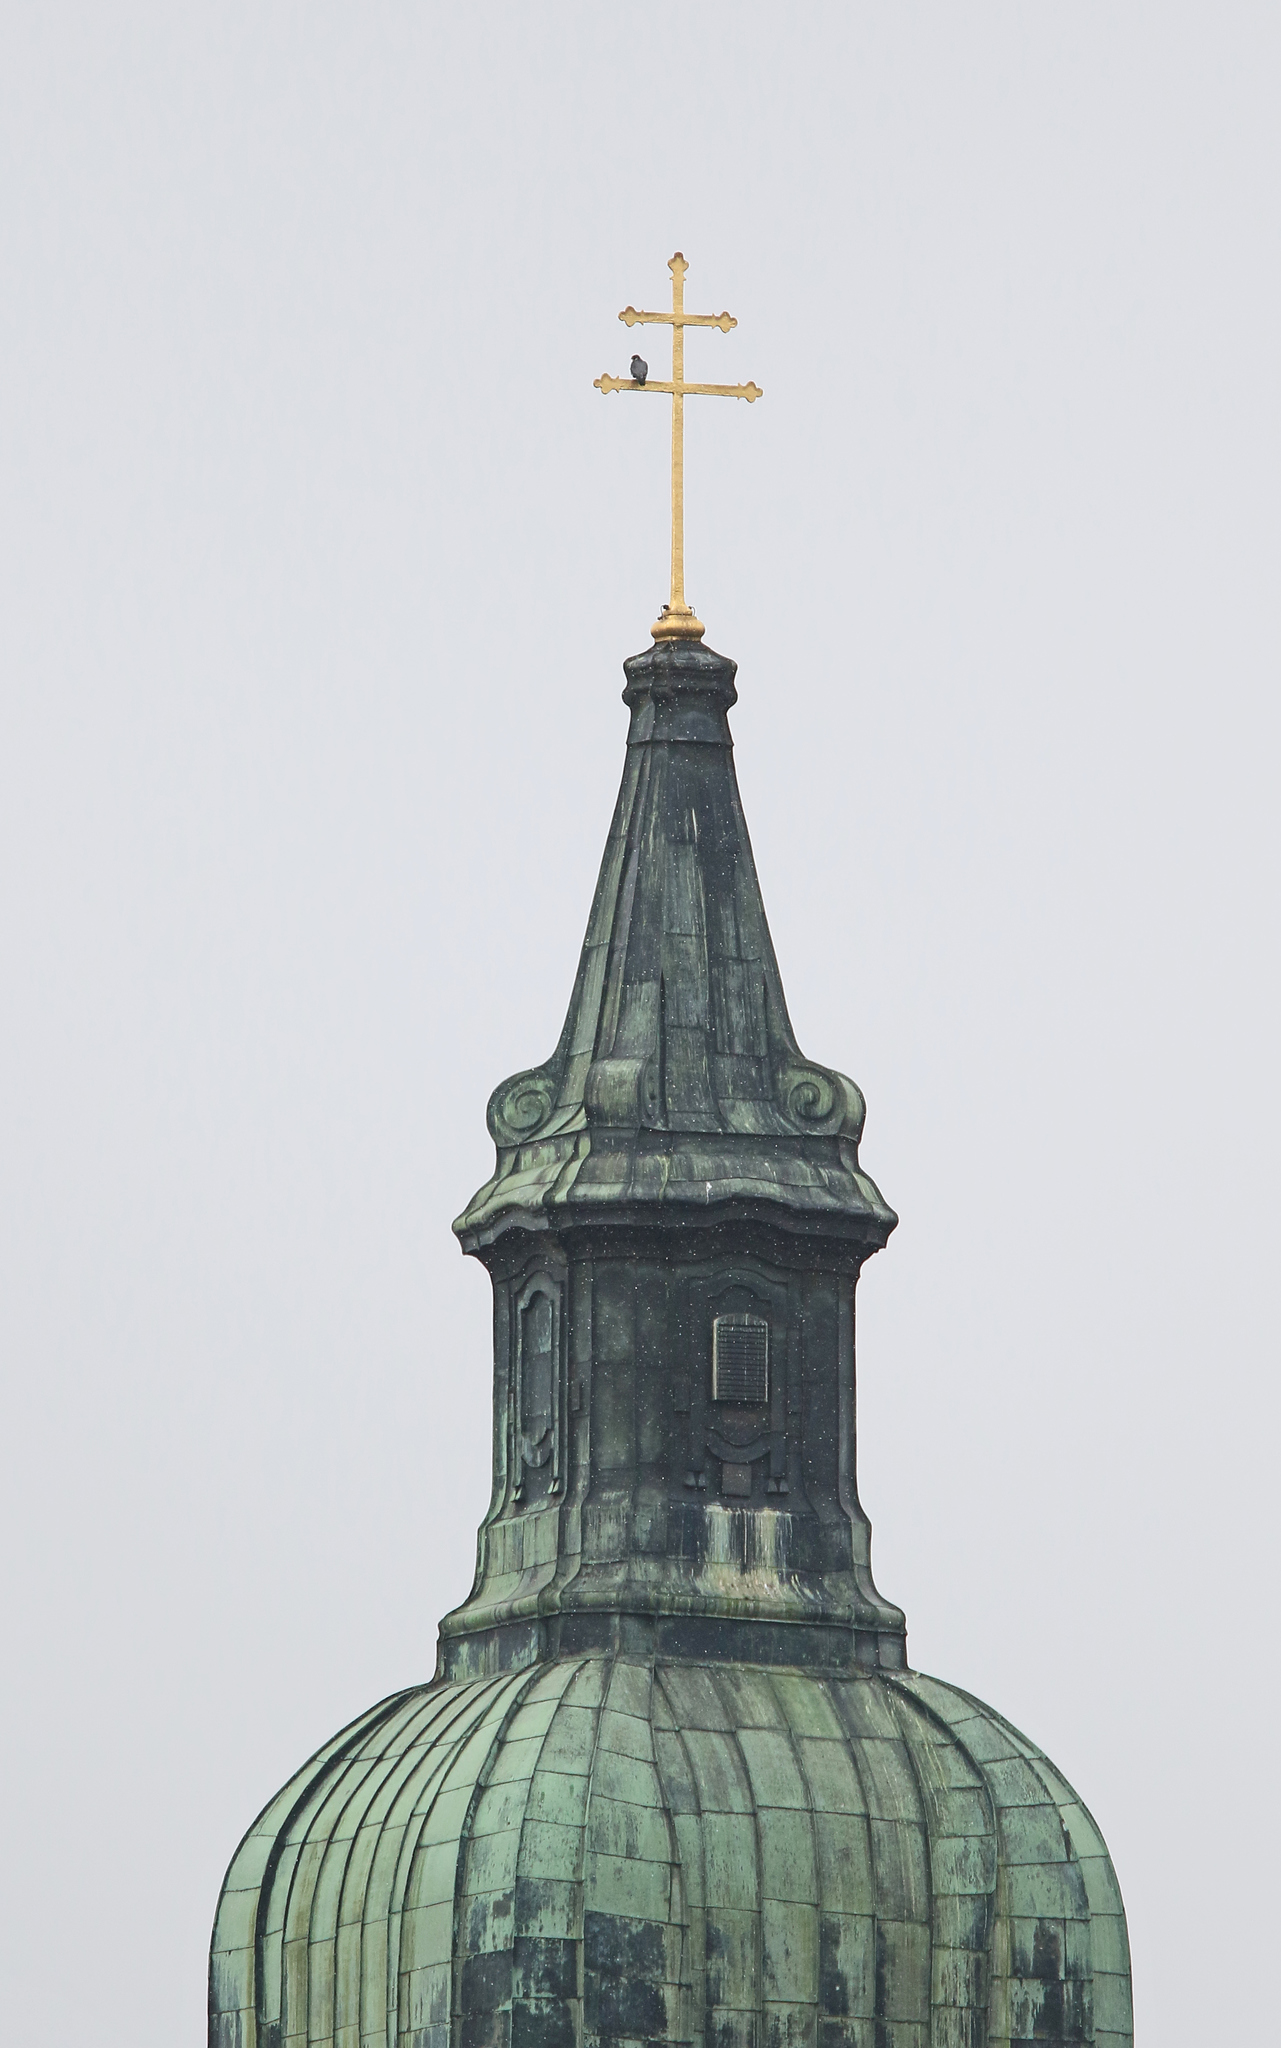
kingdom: Animalia
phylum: Chordata
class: Aves
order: Falconiformes
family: Falconidae
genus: Falco
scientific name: Falco peregrinus
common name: Peregrine falcon
